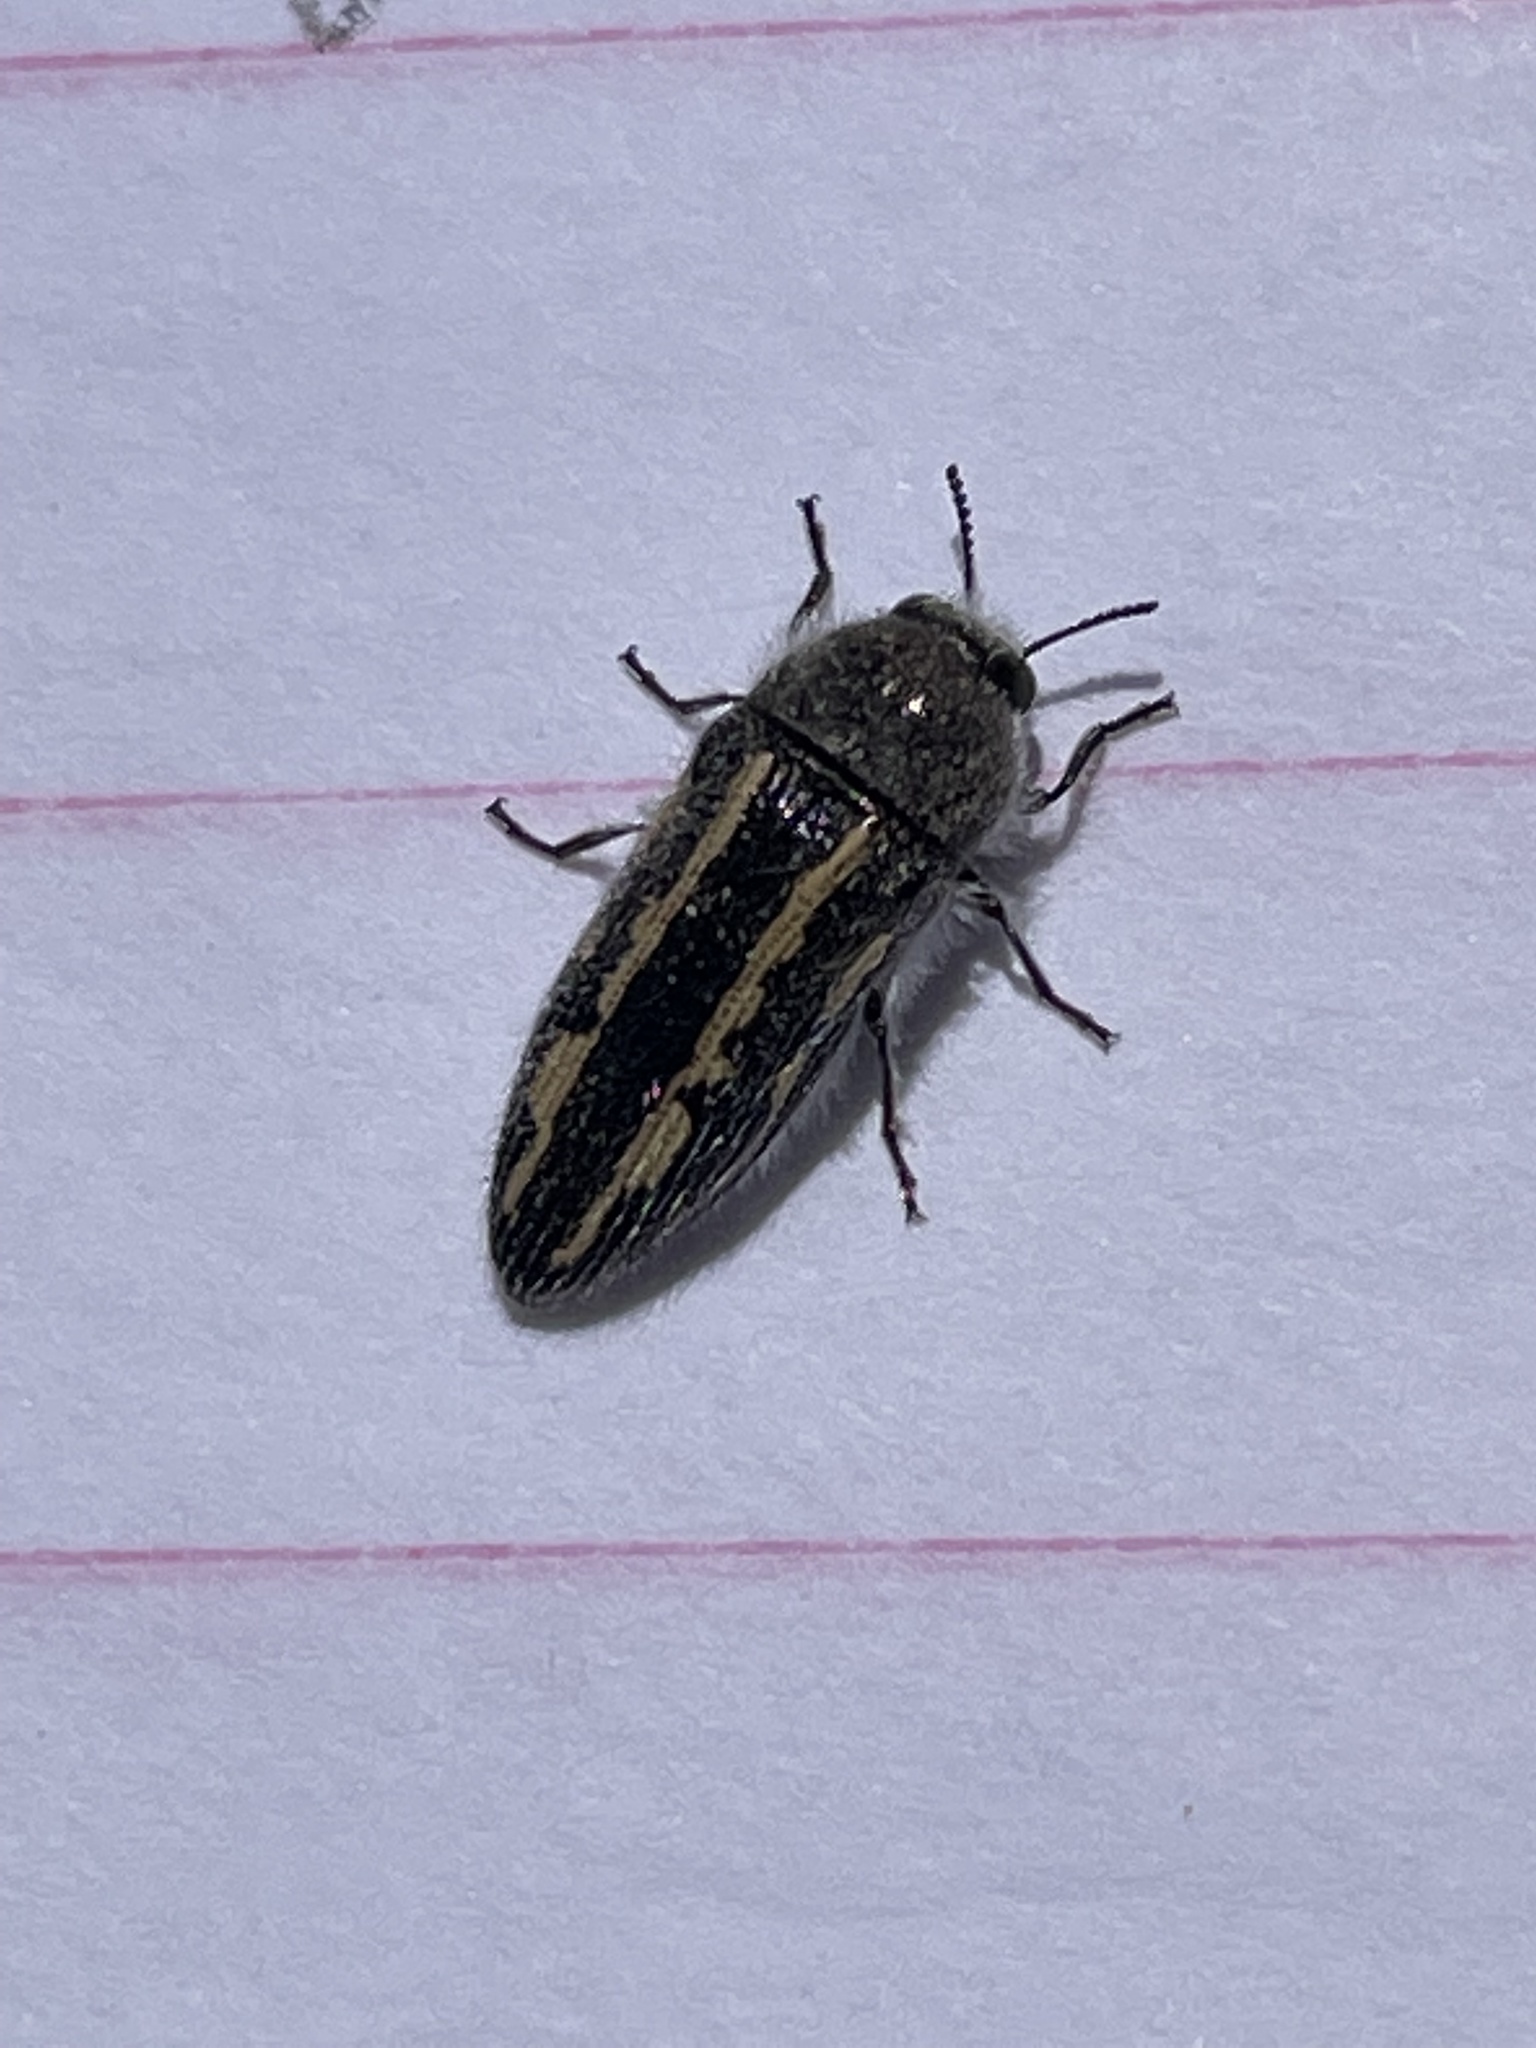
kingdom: Animalia
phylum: Arthropoda
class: Insecta
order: Coleoptera
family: Buprestidae
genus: Acmaeodera
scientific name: Acmaeodera pubiventris
